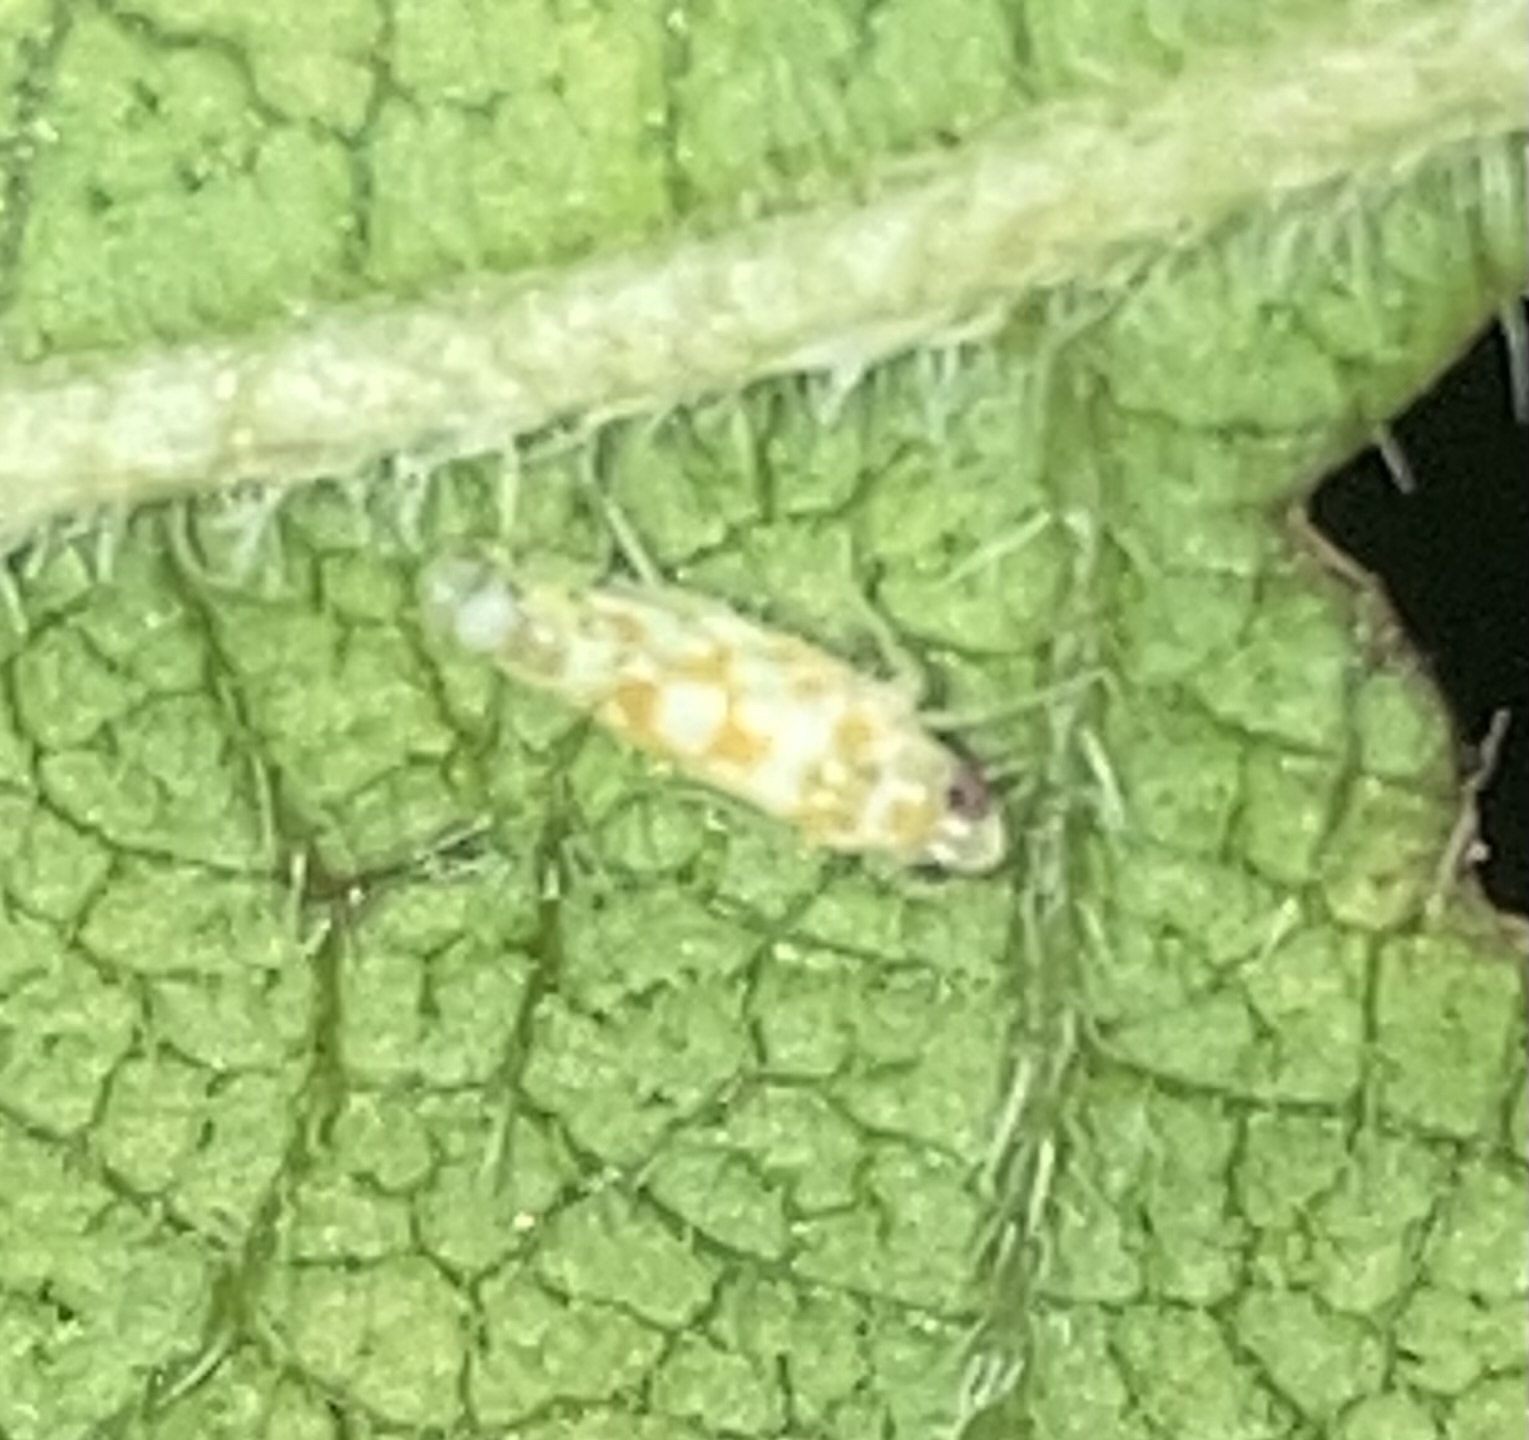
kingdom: Animalia
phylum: Arthropoda
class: Insecta
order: Hemiptera
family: Cicadellidae
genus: Protalebra
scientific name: Protalebra nexa
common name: Leafhopper
